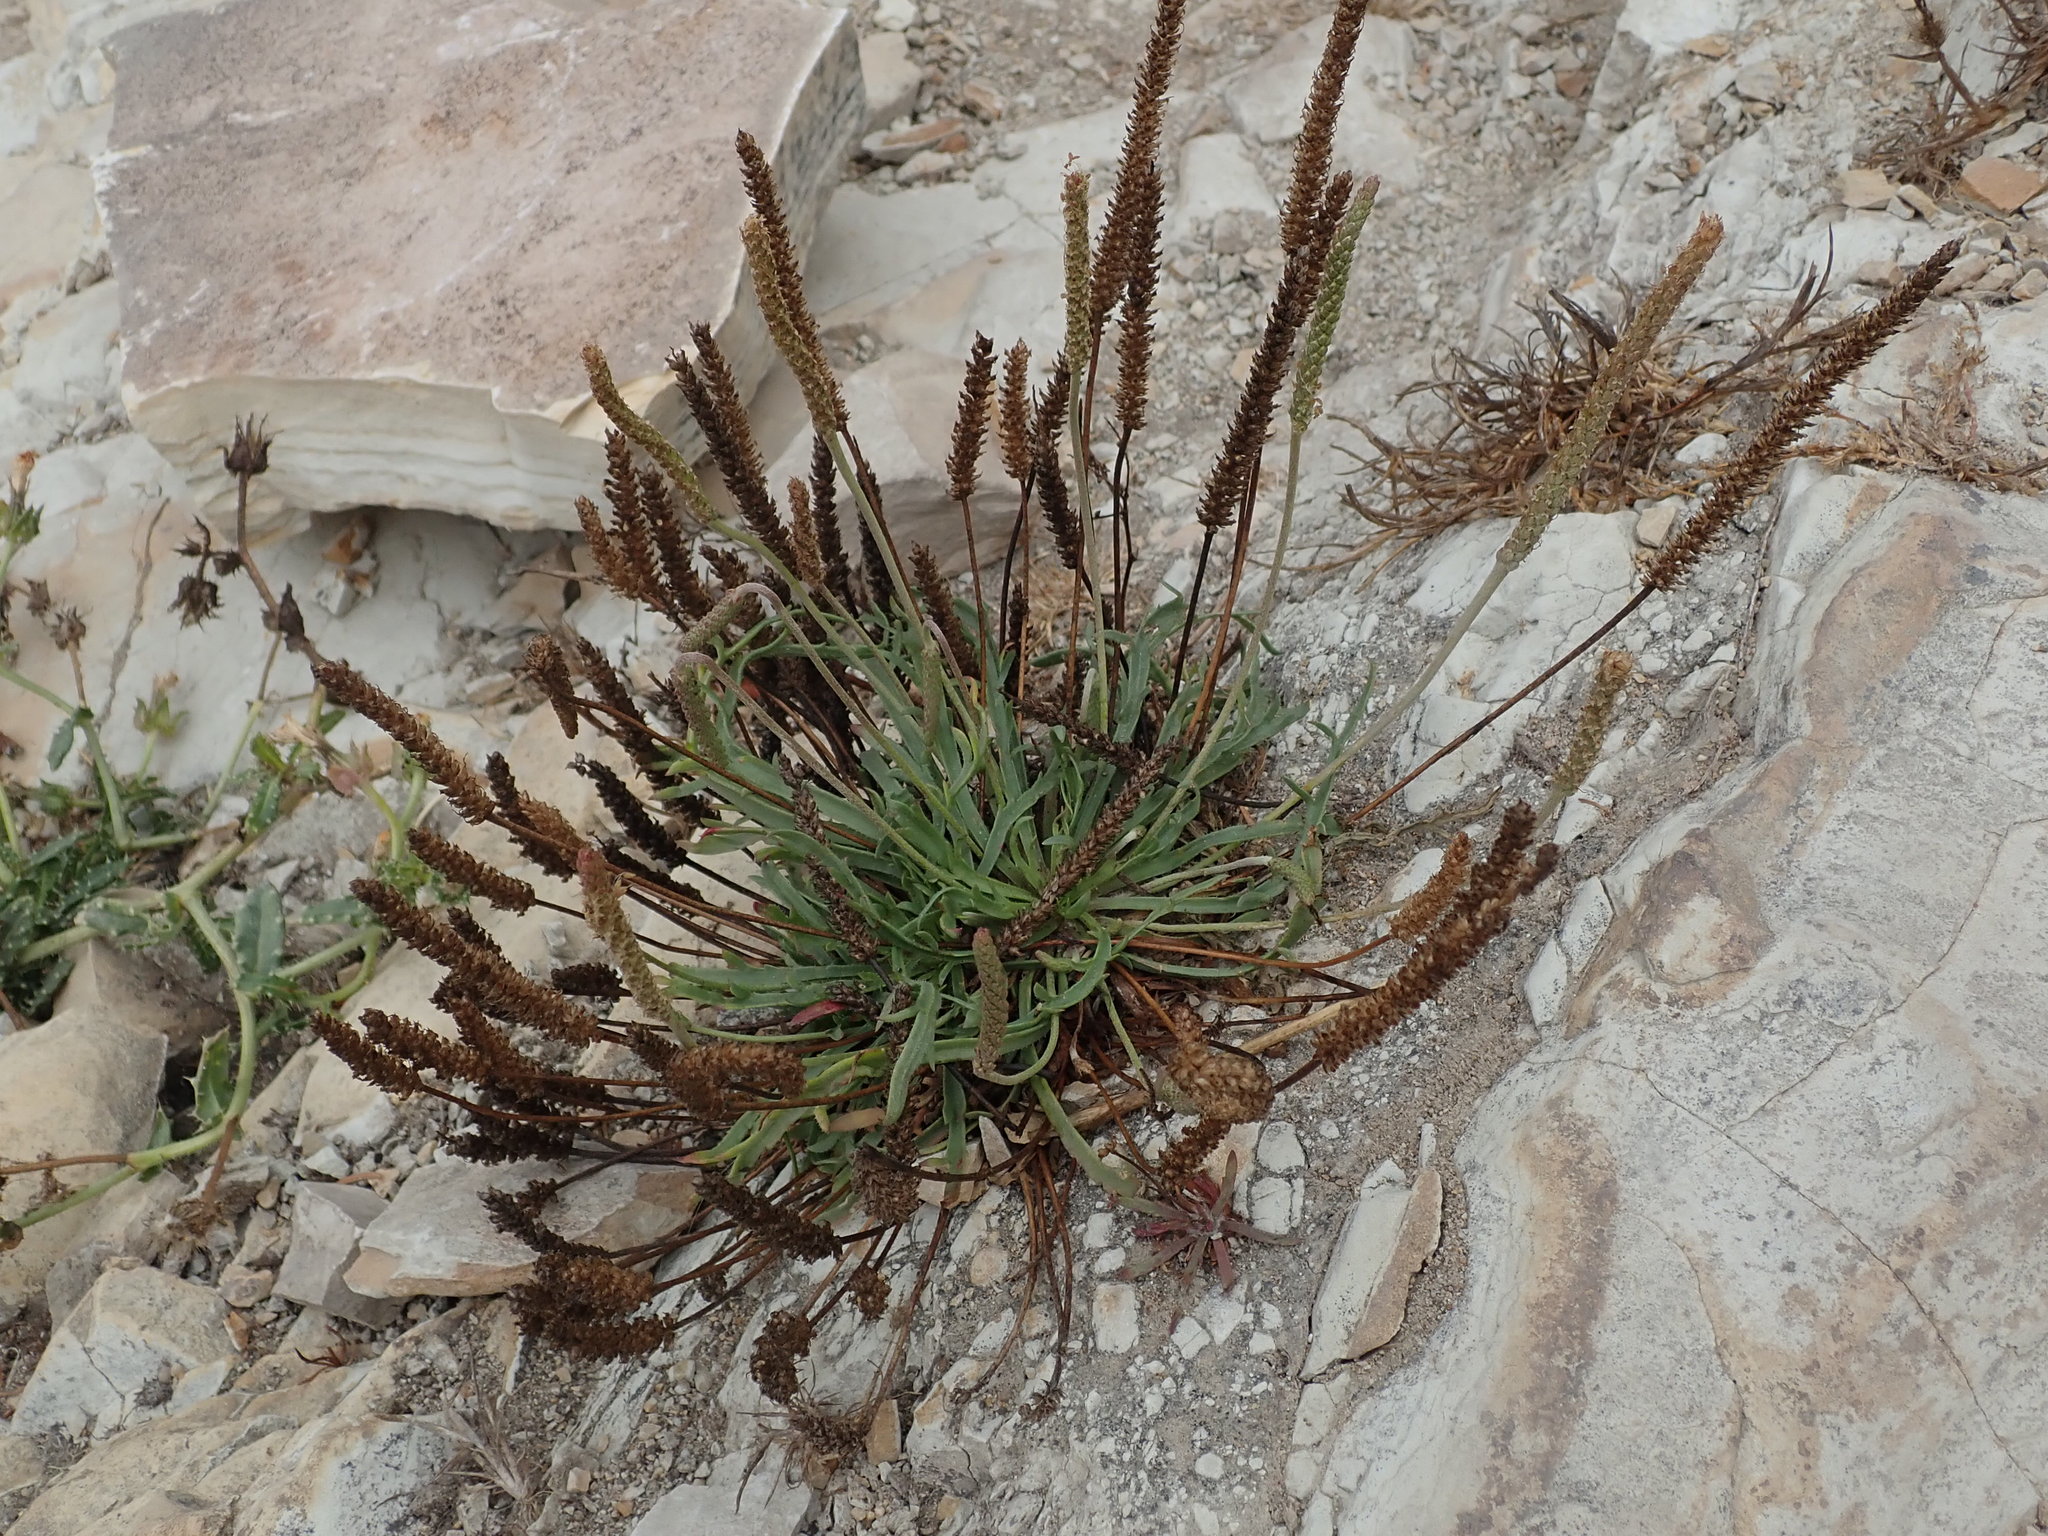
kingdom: Plantae
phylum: Tracheophyta
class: Magnoliopsida
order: Lamiales
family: Plantaginaceae
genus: Plantago
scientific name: Plantago maritima
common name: Sea plantain
